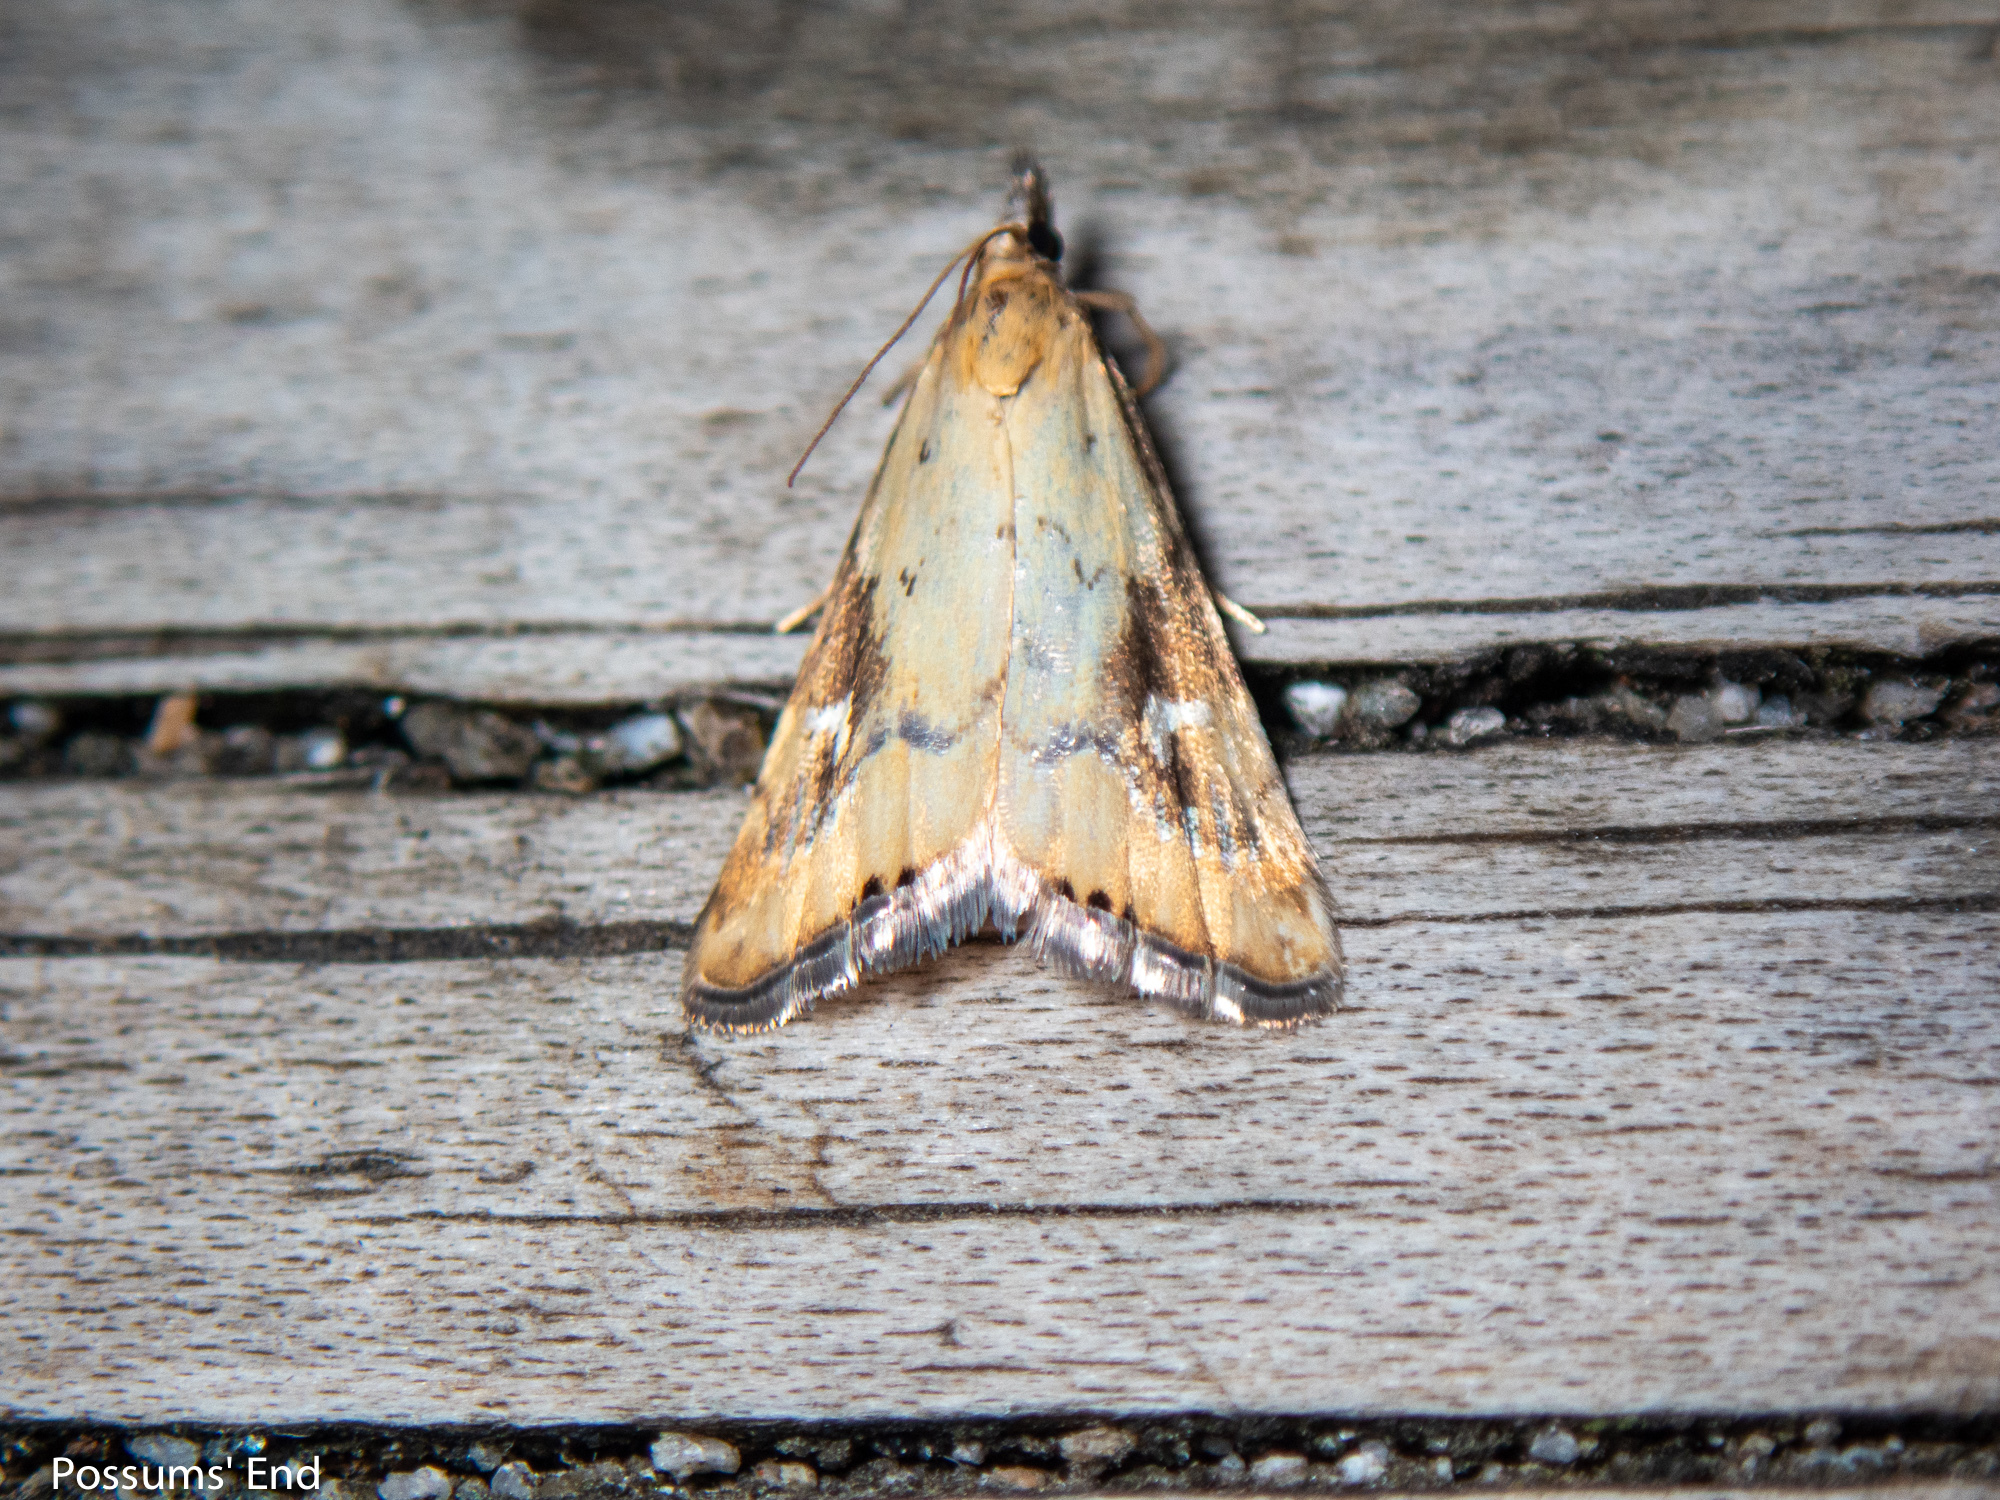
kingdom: Animalia
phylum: Arthropoda
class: Insecta
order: Lepidoptera
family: Crambidae
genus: Glaucocharis
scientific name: Glaucocharis lepidella
